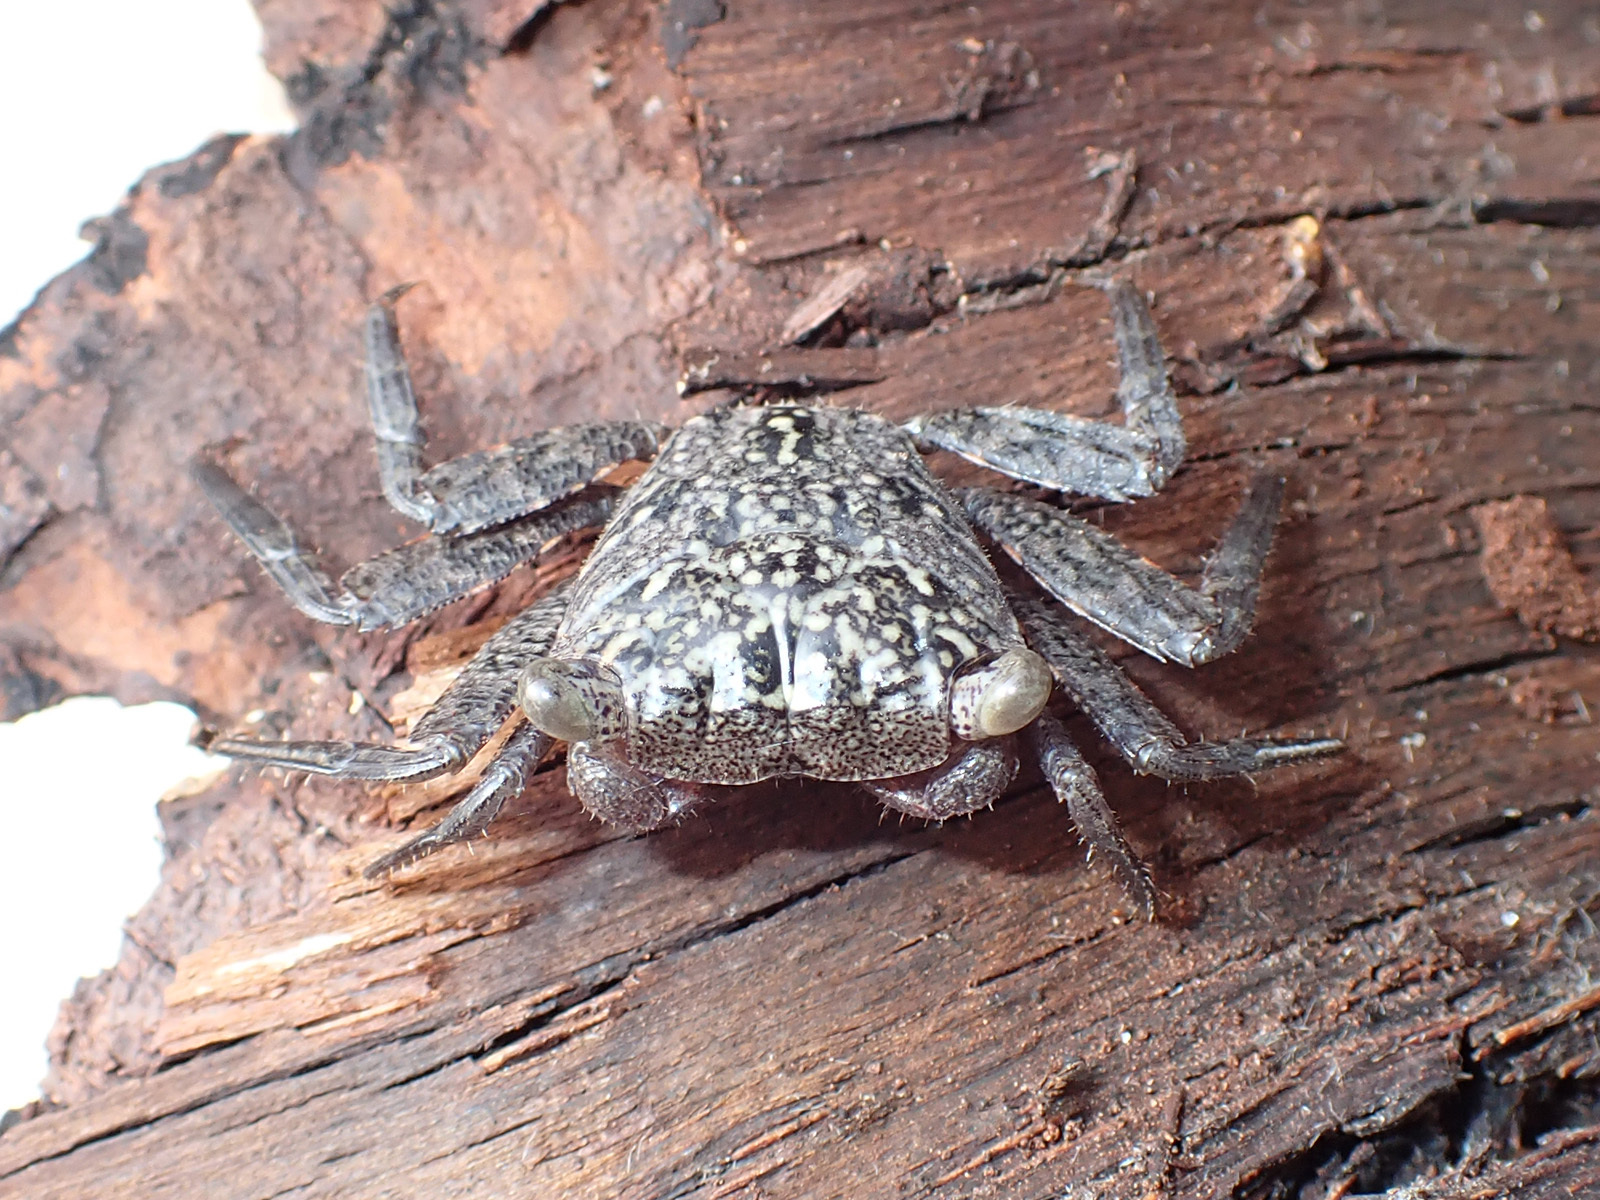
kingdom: Animalia
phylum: Arthropoda
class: Malacostraca
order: Decapoda
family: Sesarmidae
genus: Aratus
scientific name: Aratus pisonii
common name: Mangrove crab
